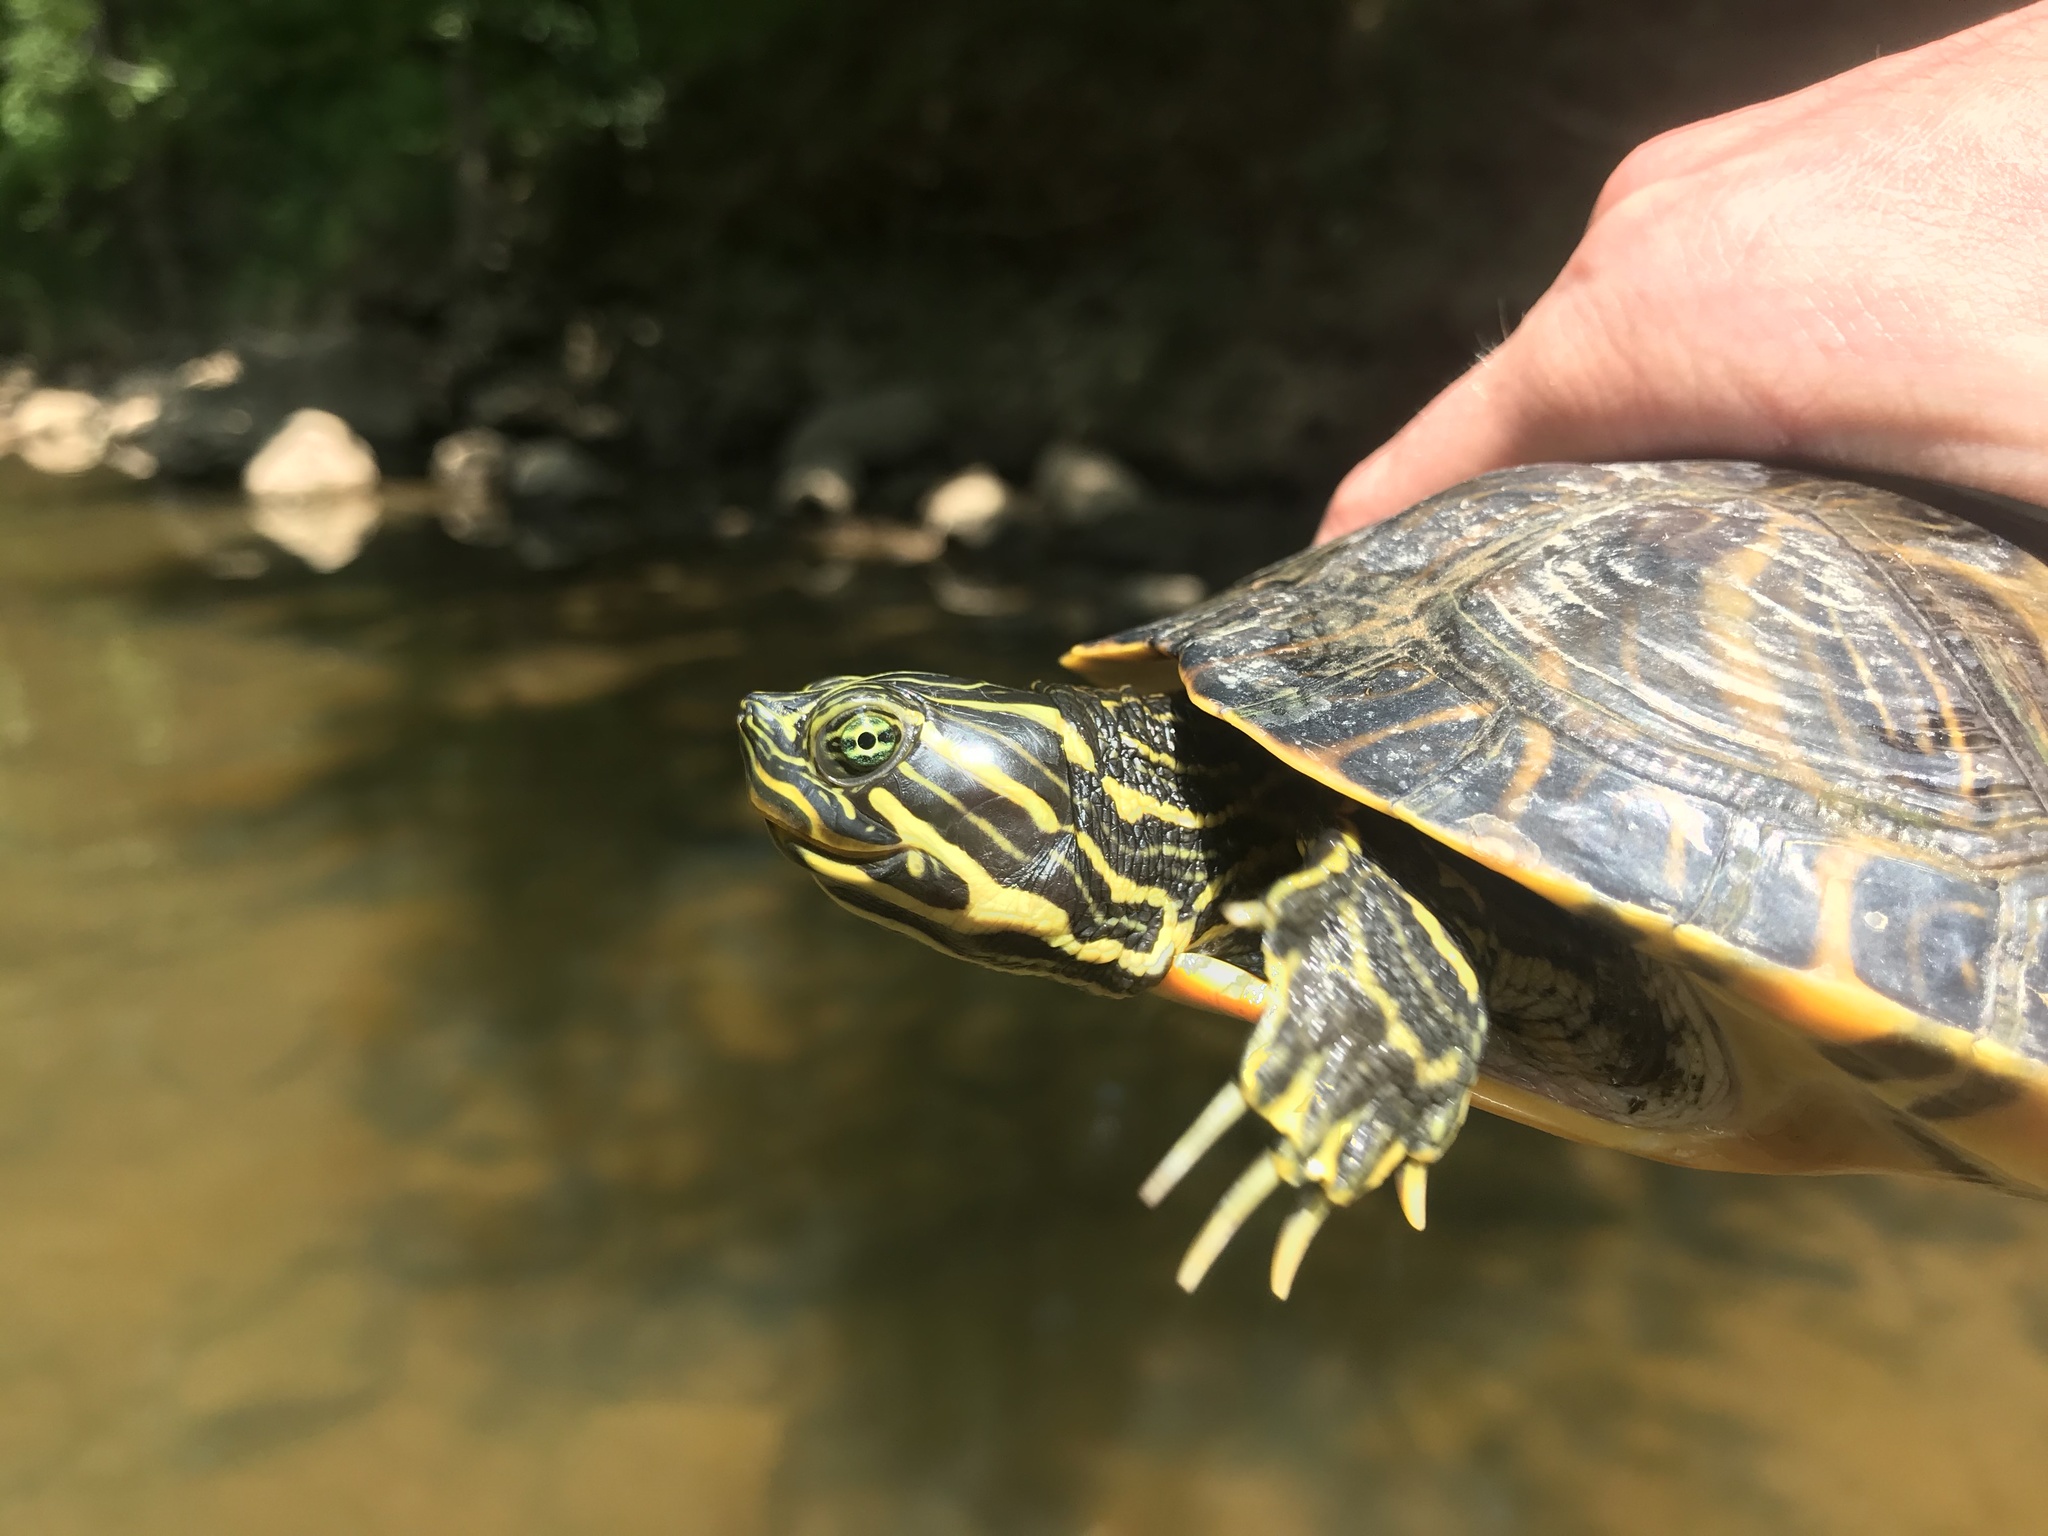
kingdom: Animalia
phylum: Chordata
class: Testudines
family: Emydidae
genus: Pseudemys
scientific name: Pseudemys concinna
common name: Eastern river cooter
